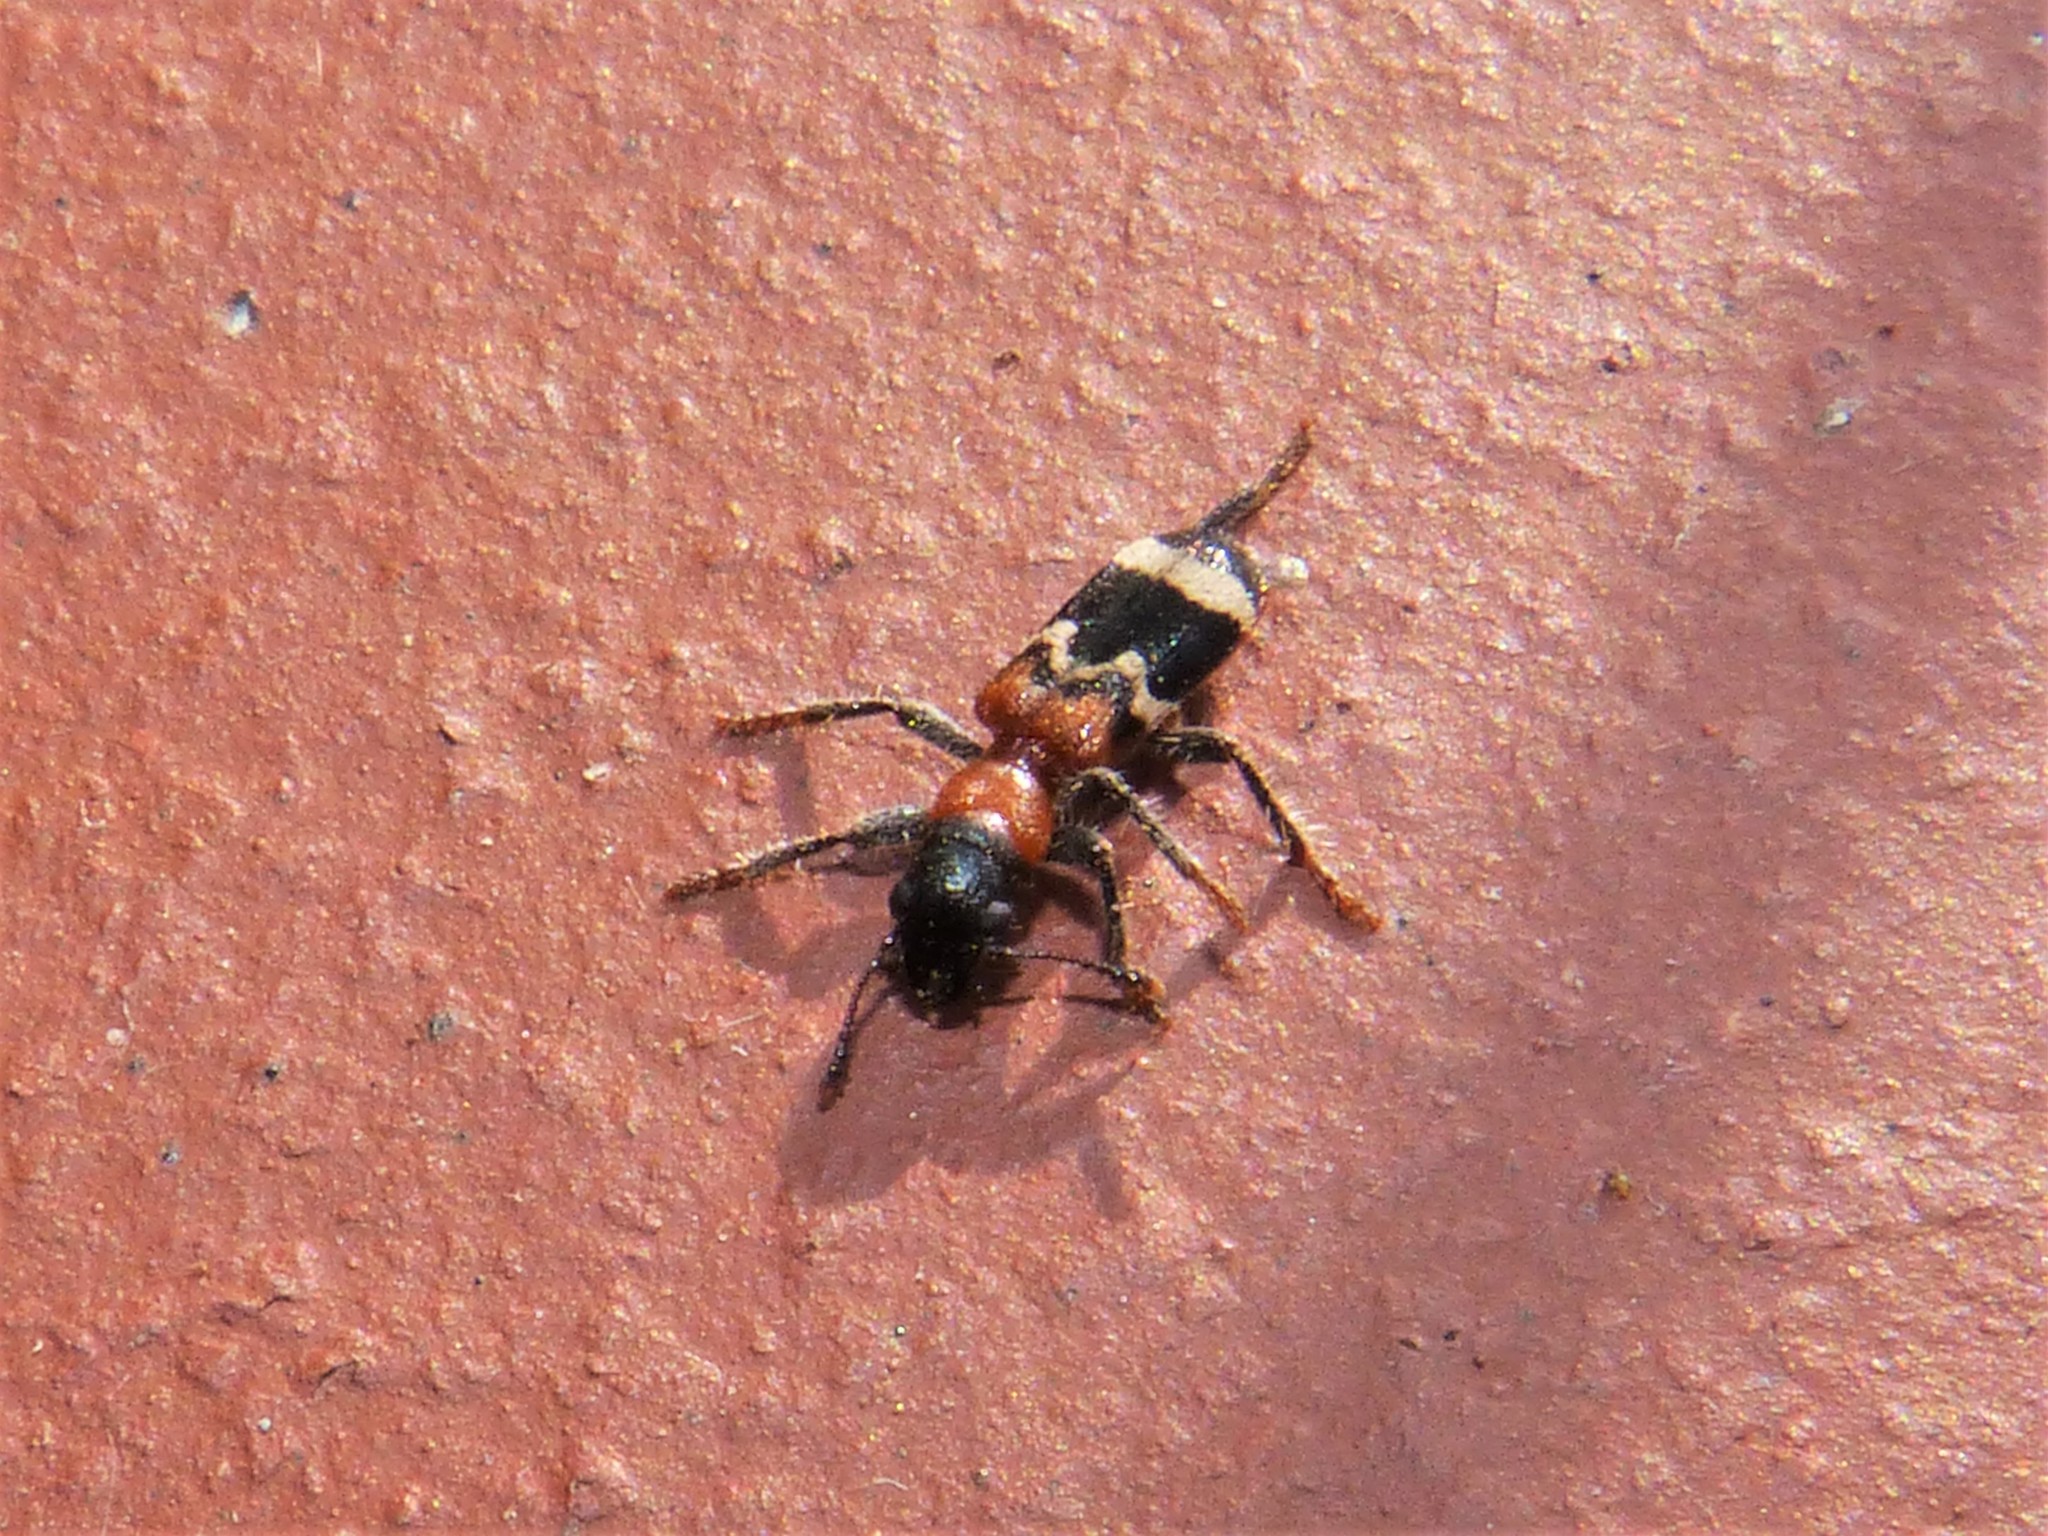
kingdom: Animalia
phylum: Arthropoda
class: Insecta
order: Coleoptera
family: Cleridae
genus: Thanasimus
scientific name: Thanasimus formicarius
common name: Ant beetle
